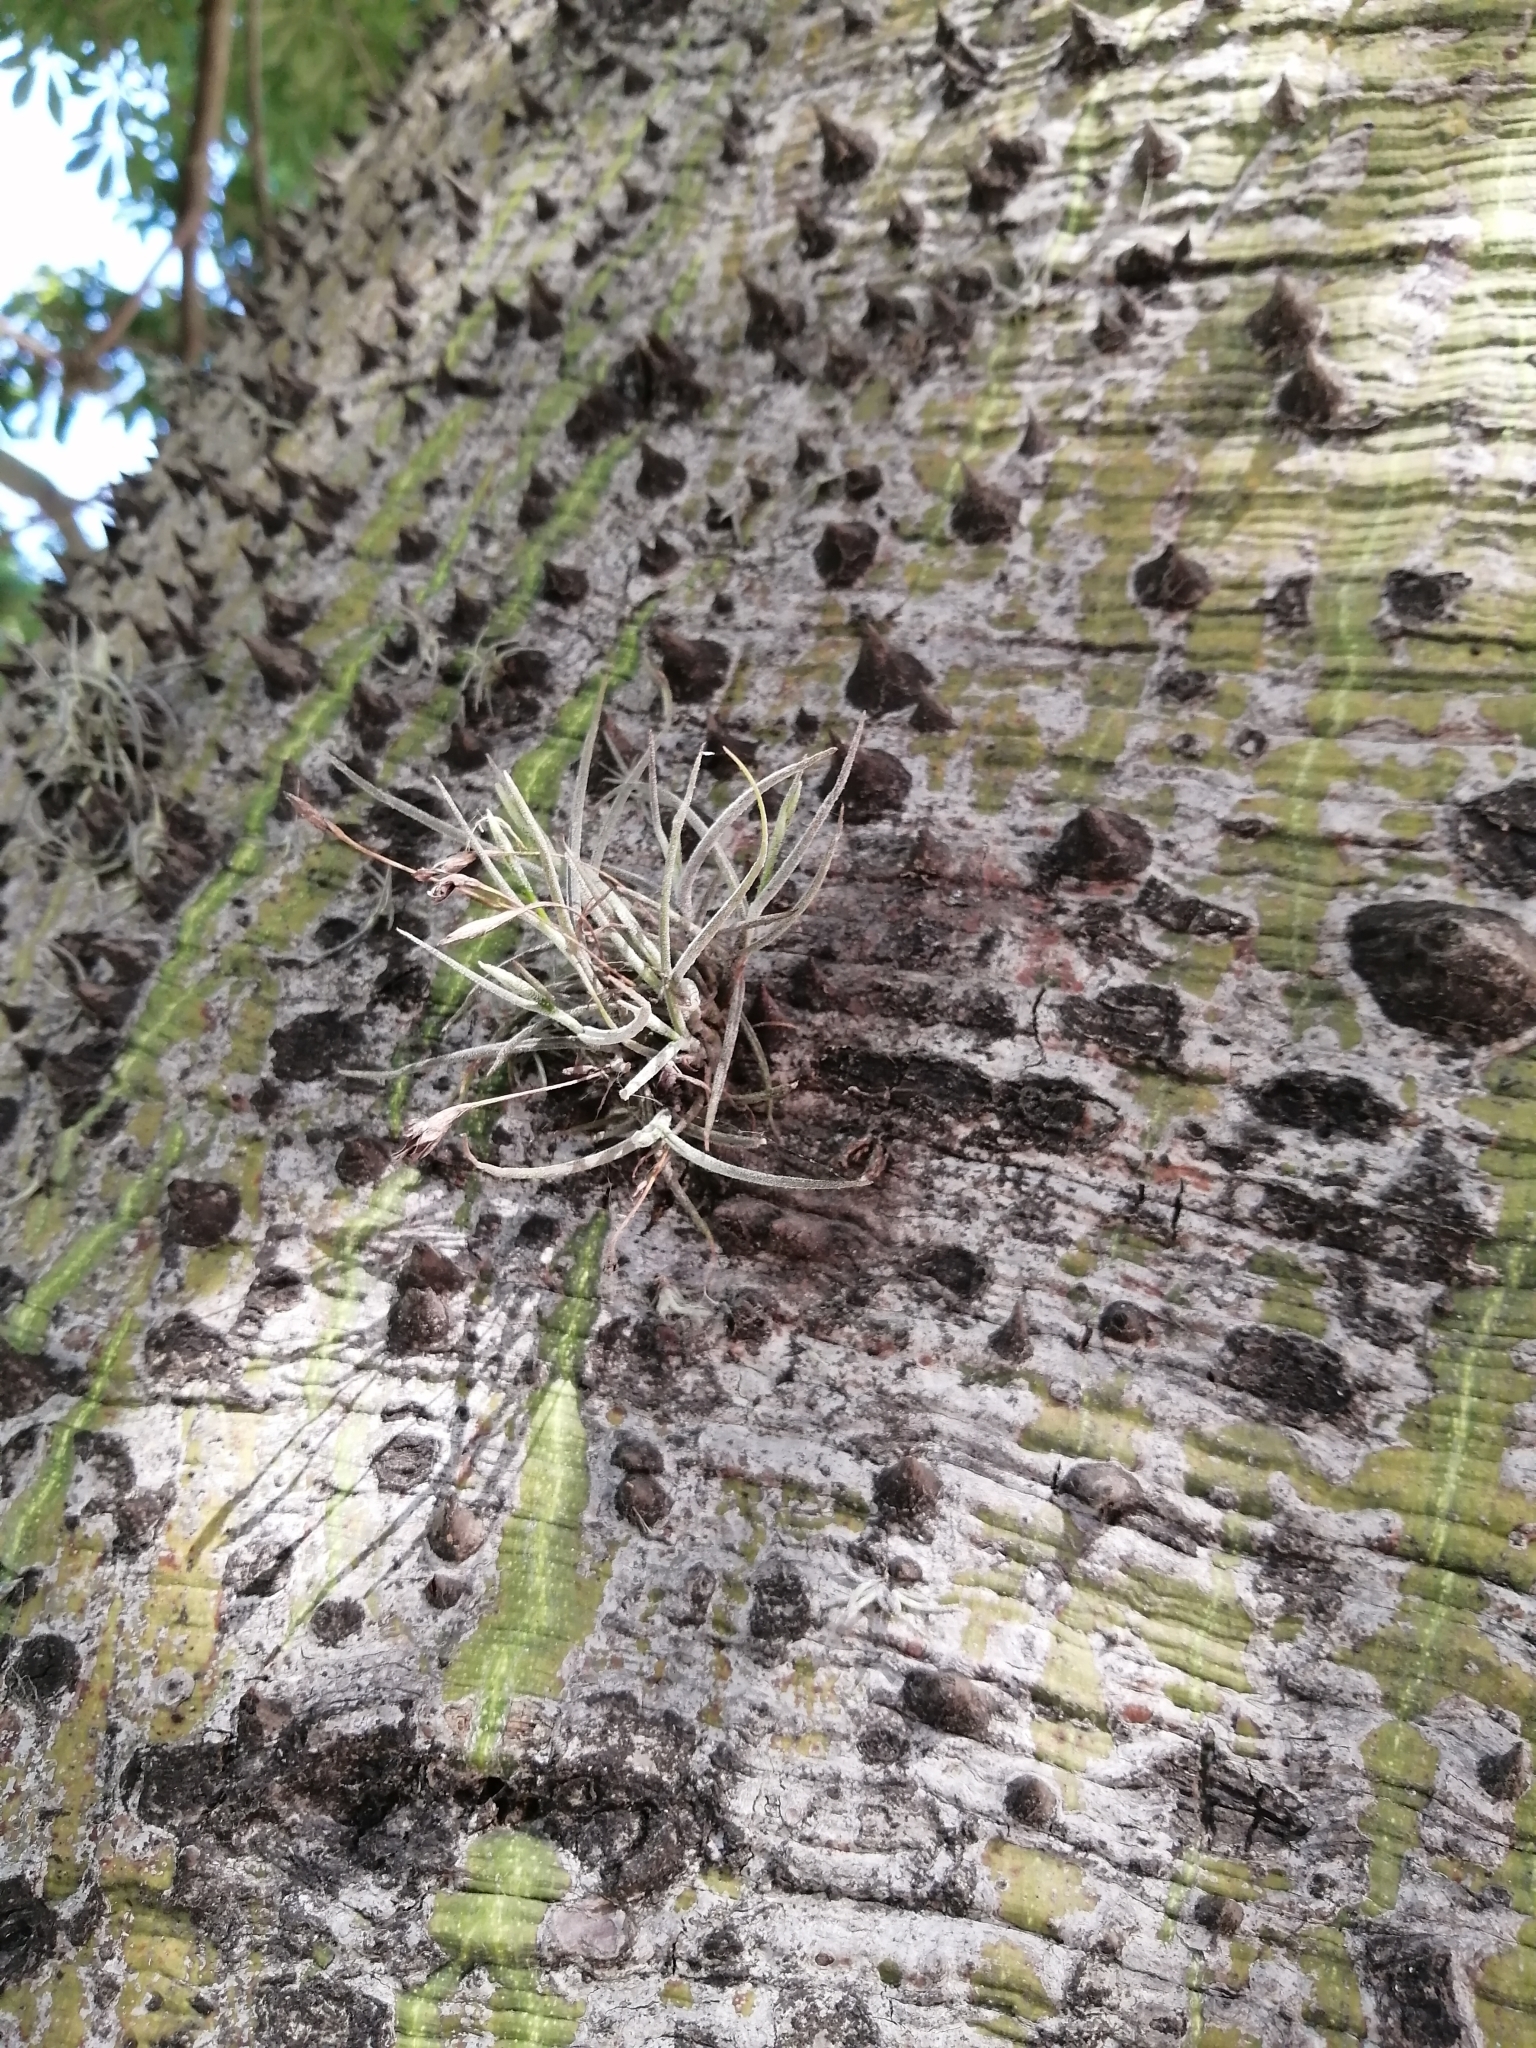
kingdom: Plantae
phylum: Tracheophyta
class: Liliopsida
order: Poales
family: Bromeliaceae
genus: Tillandsia
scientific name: Tillandsia recurvata
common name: Small ballmoss
